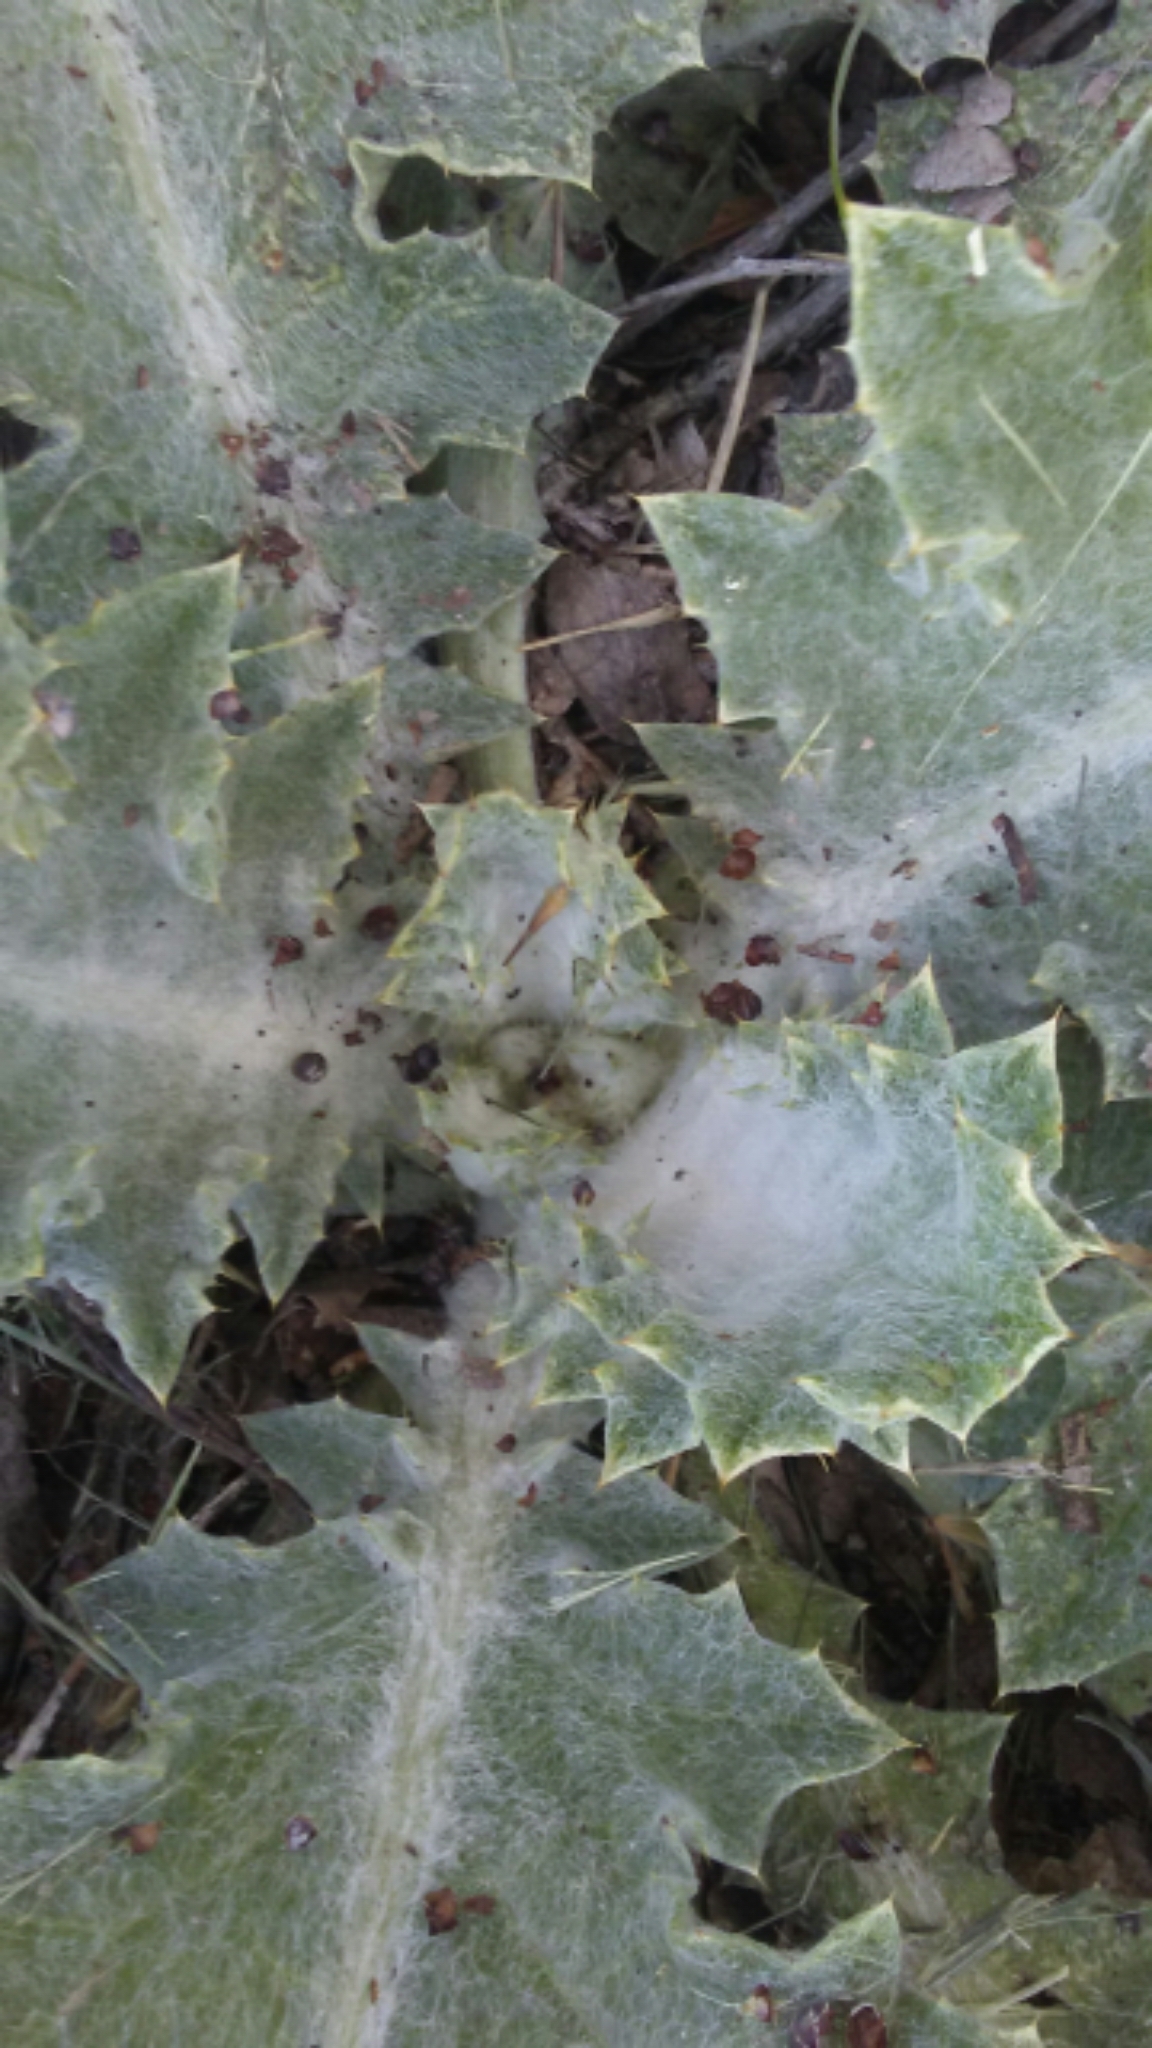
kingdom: Plantae
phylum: Tracheophyta
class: Magnoliopsida
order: Asterales
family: Asteraceae
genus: Onopordum
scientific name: Onopordum acanthium
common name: Scotch thistle
